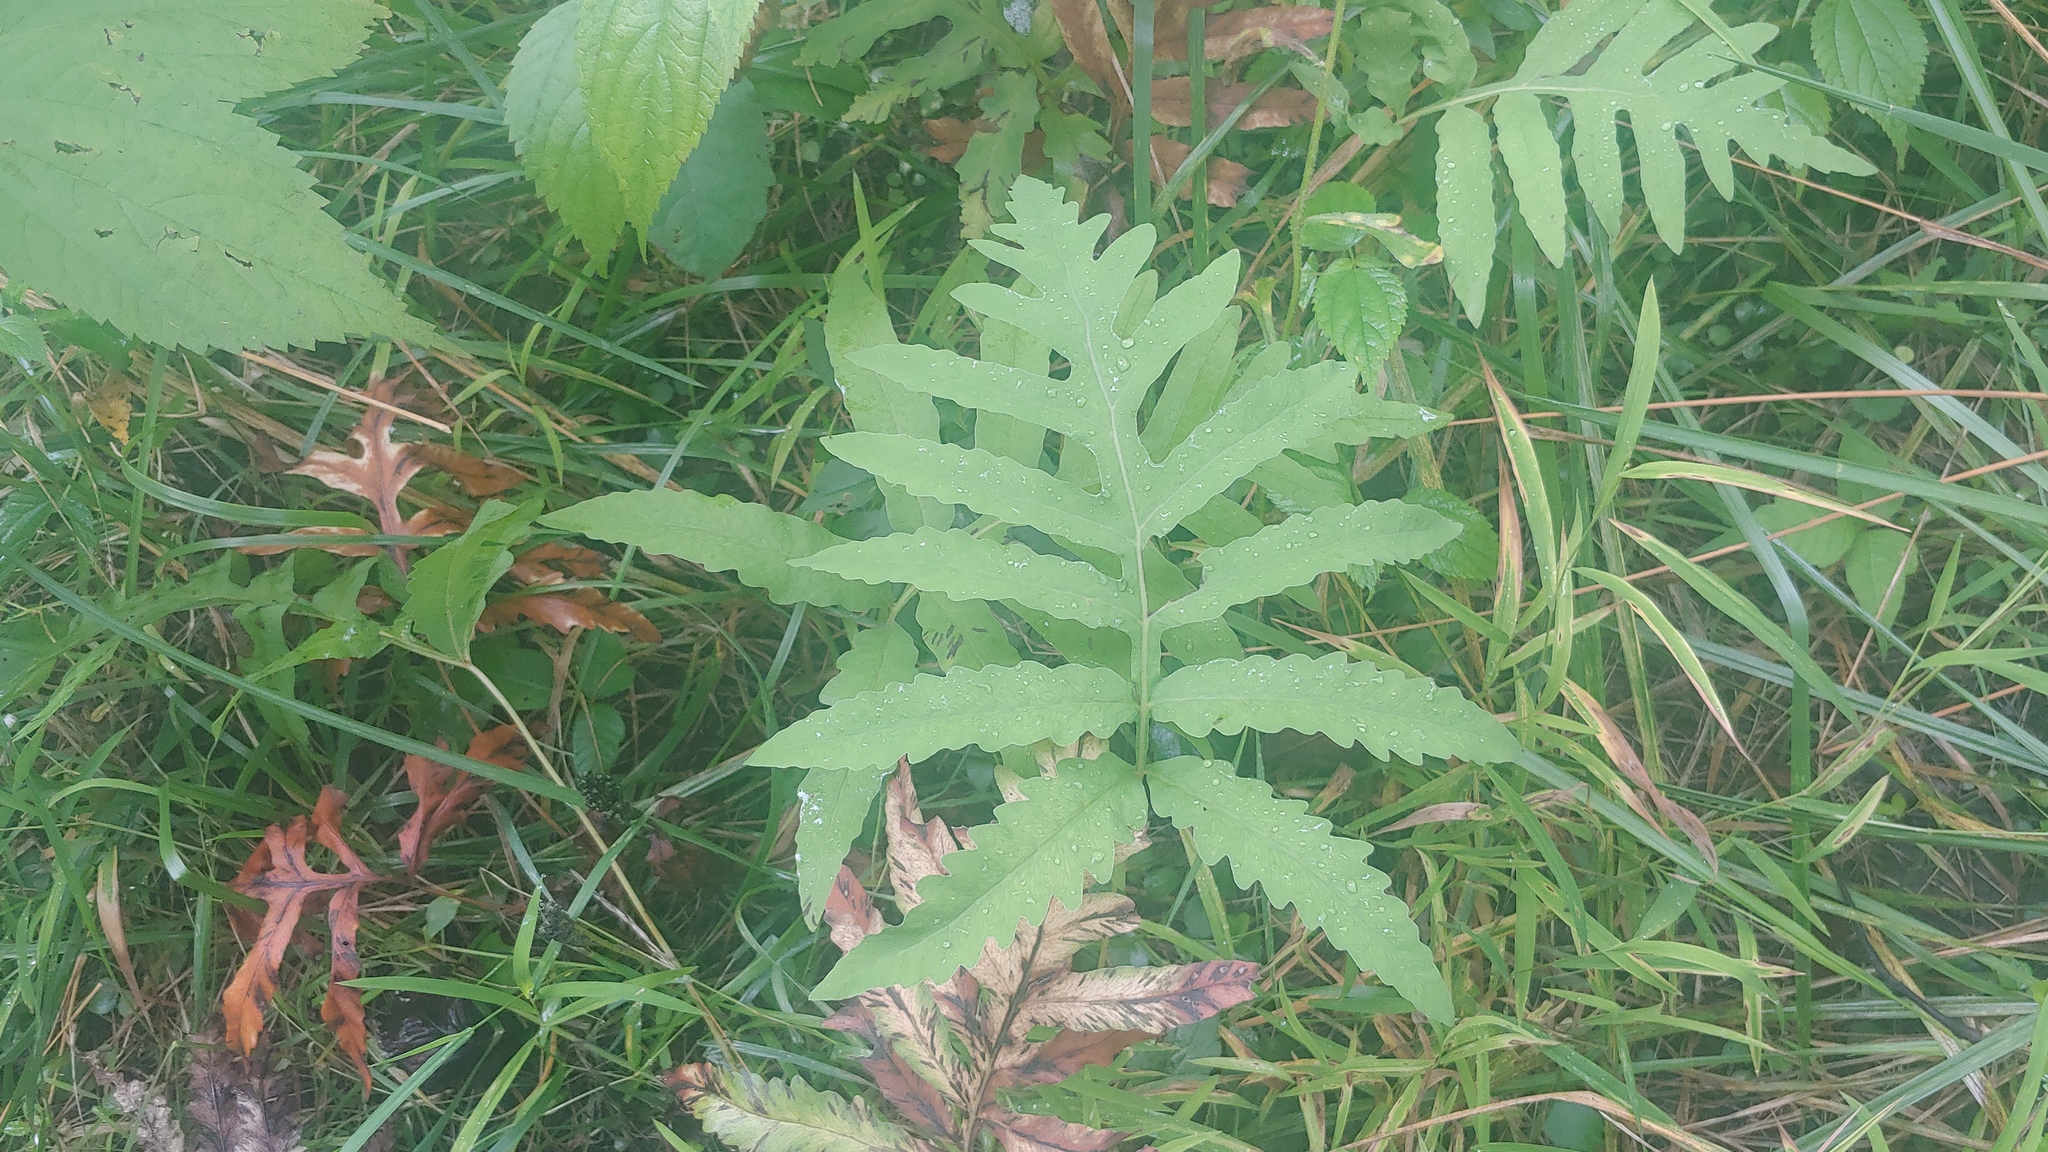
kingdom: Plantae
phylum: Tracheophyta
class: Polypodiopsida
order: Polypodiales
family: Onocleaceae
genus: Onoclea
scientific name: Onoclea sensibilis
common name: Sensitive fern
